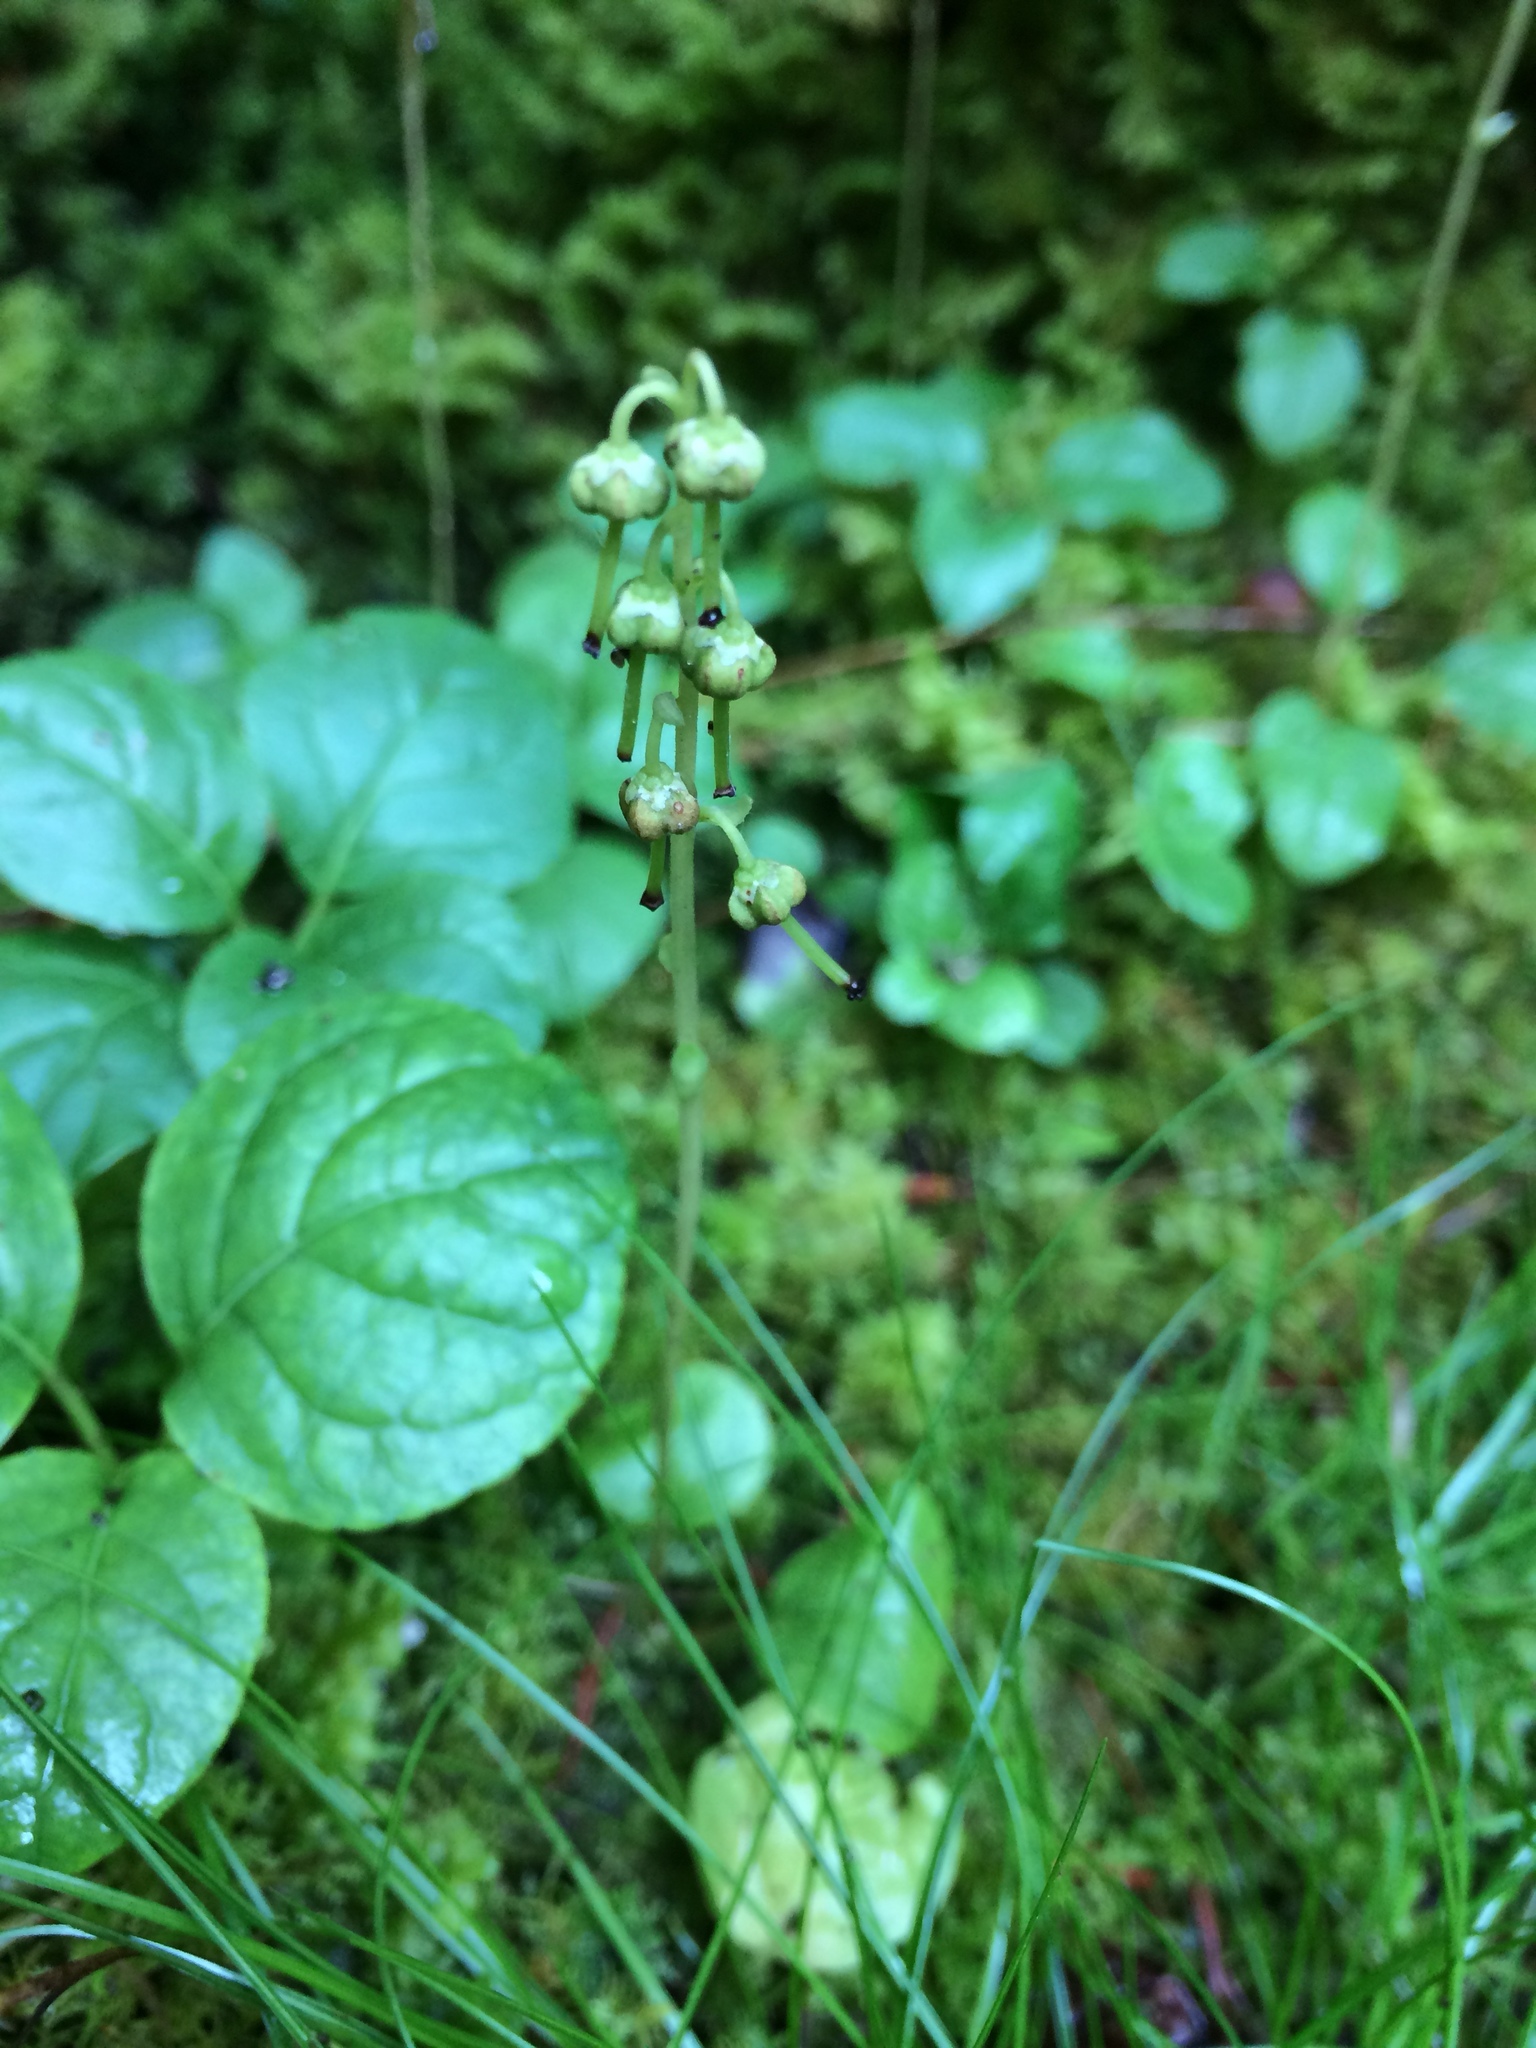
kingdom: Plantae
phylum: Tracheophyta
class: Magnoliopsida
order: Ericales
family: Ericaceae
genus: Orthilia
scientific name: Orthilia secunda
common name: One-sided orthilia
